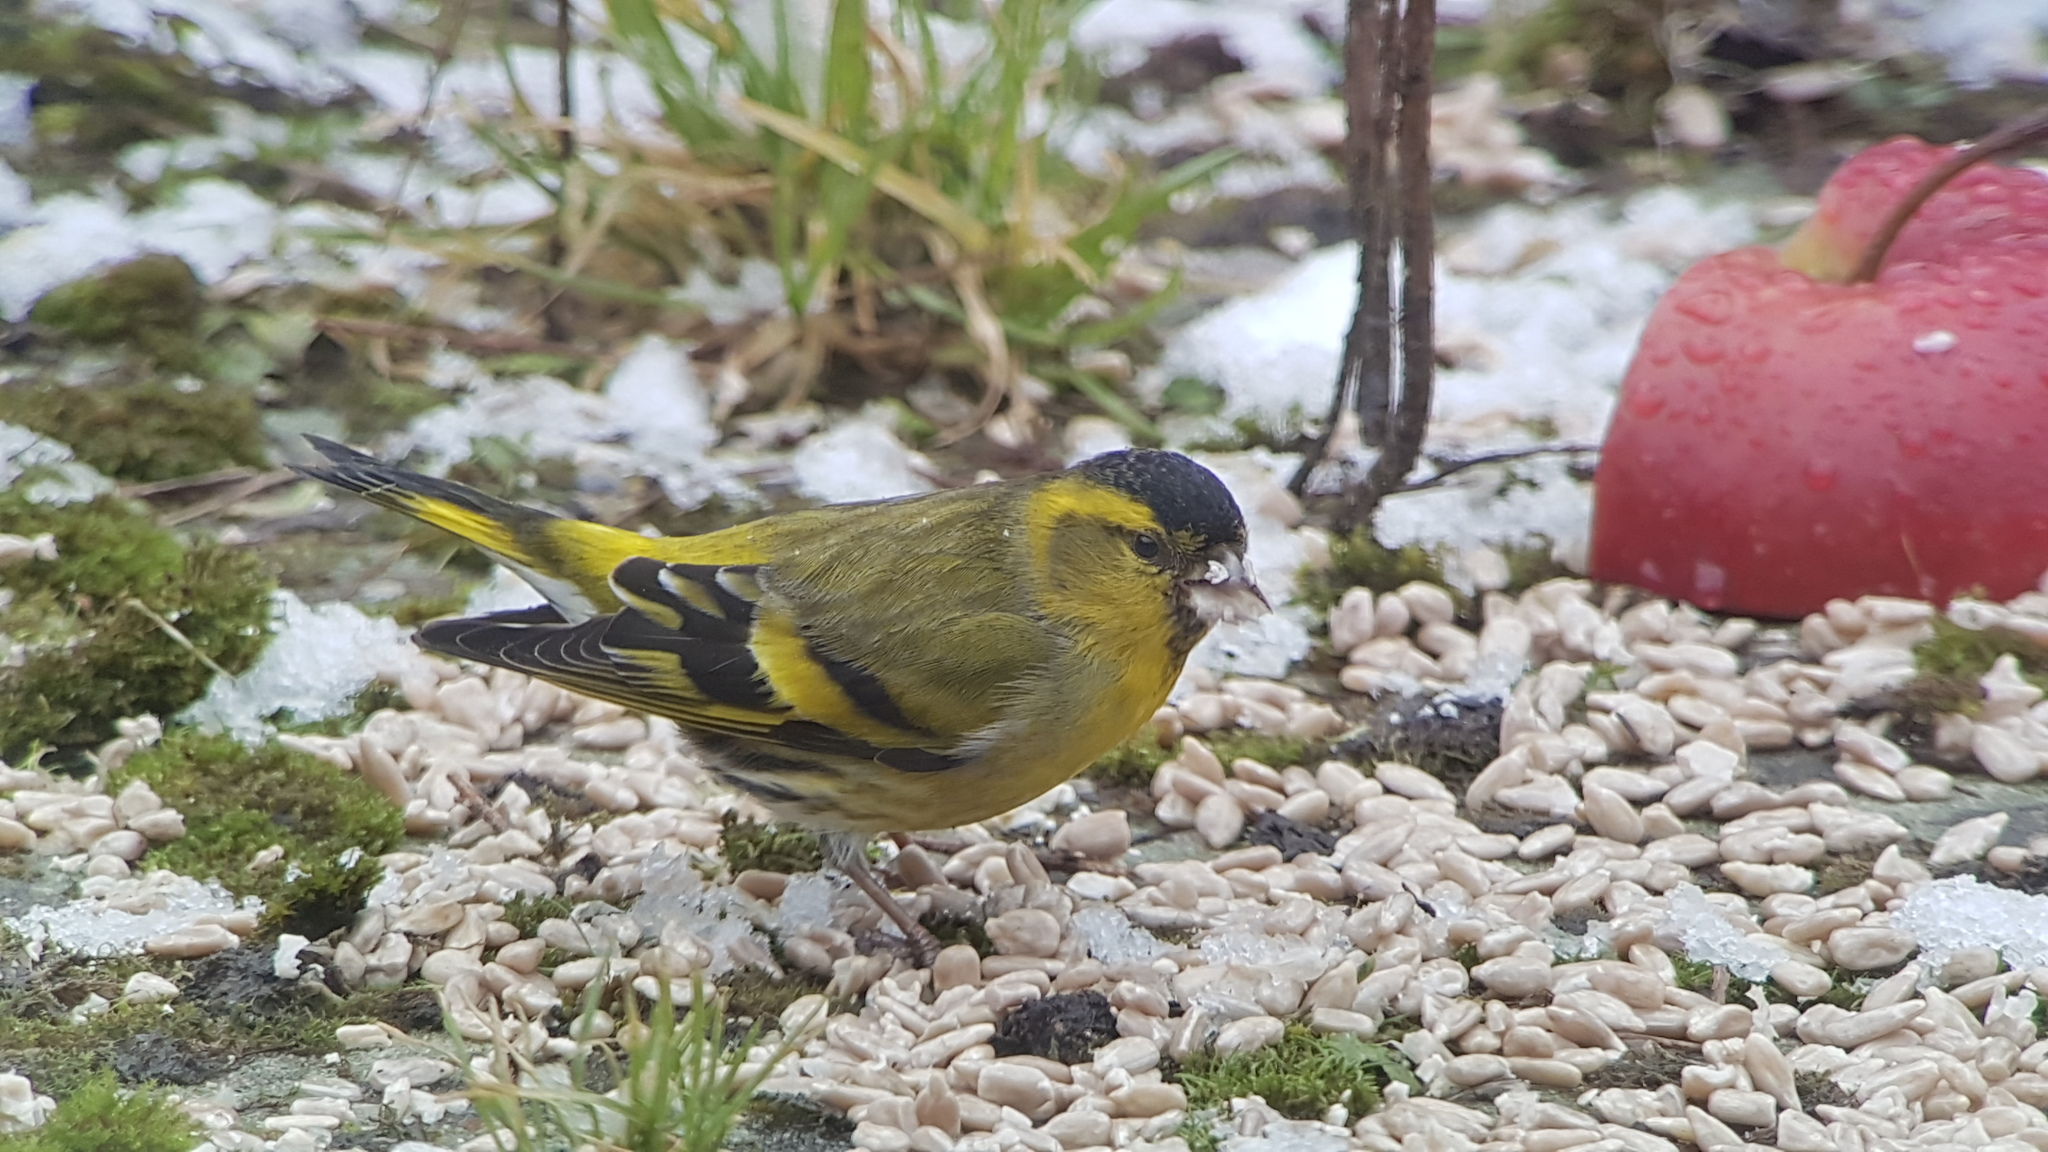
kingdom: Animalia
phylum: Chordata
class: Aves
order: Passeriformes
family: Fringillidae
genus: Spinus
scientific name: Spinus spinus
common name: Eurasian siskin
